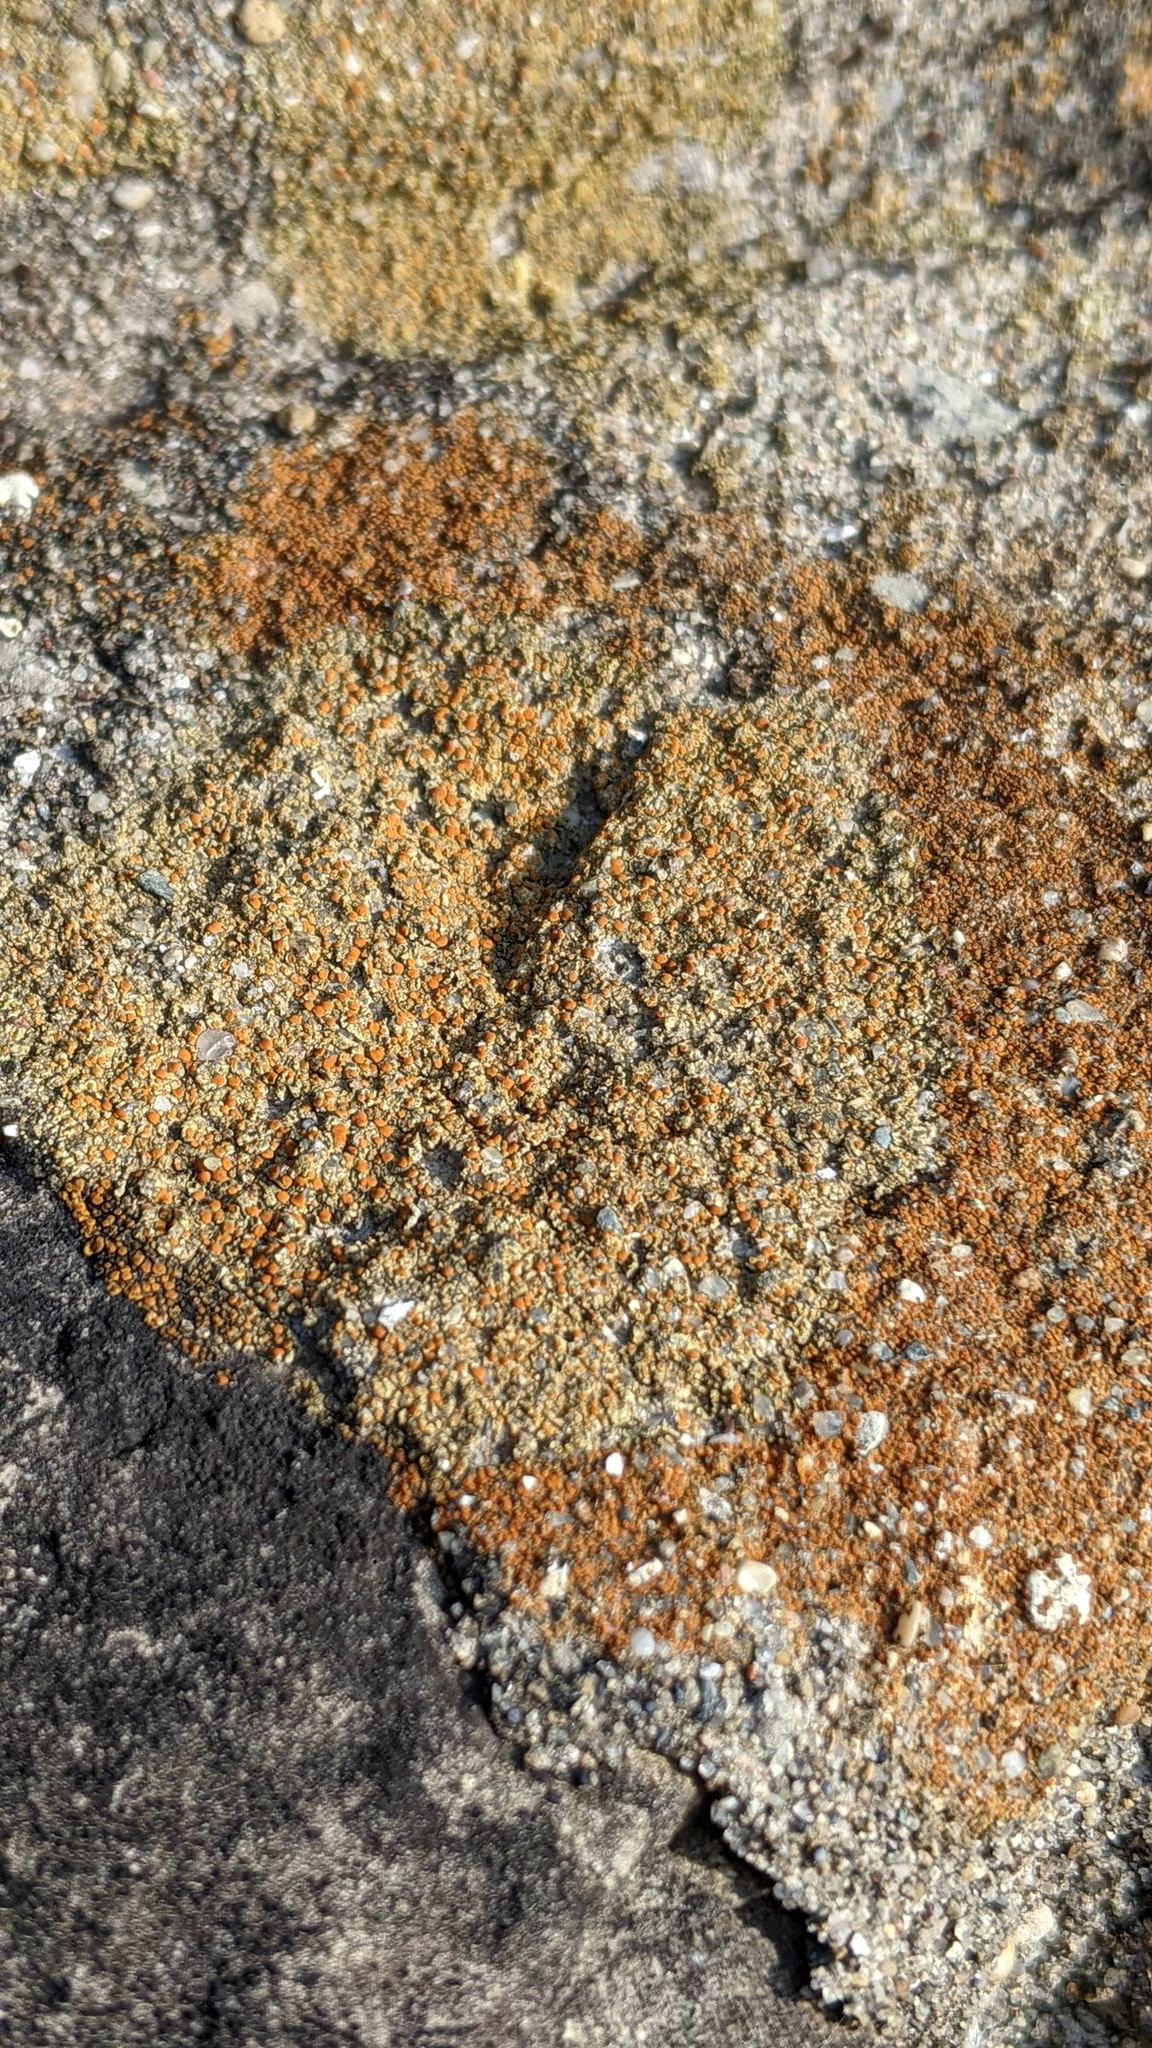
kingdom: Fungi
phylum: Ascomycota
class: Lecanoromycetes
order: Teloschistales
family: Teloschistaceae
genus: Gyalolechia
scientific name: Gyalolechia flavovirescens
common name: Sulphur firedot
